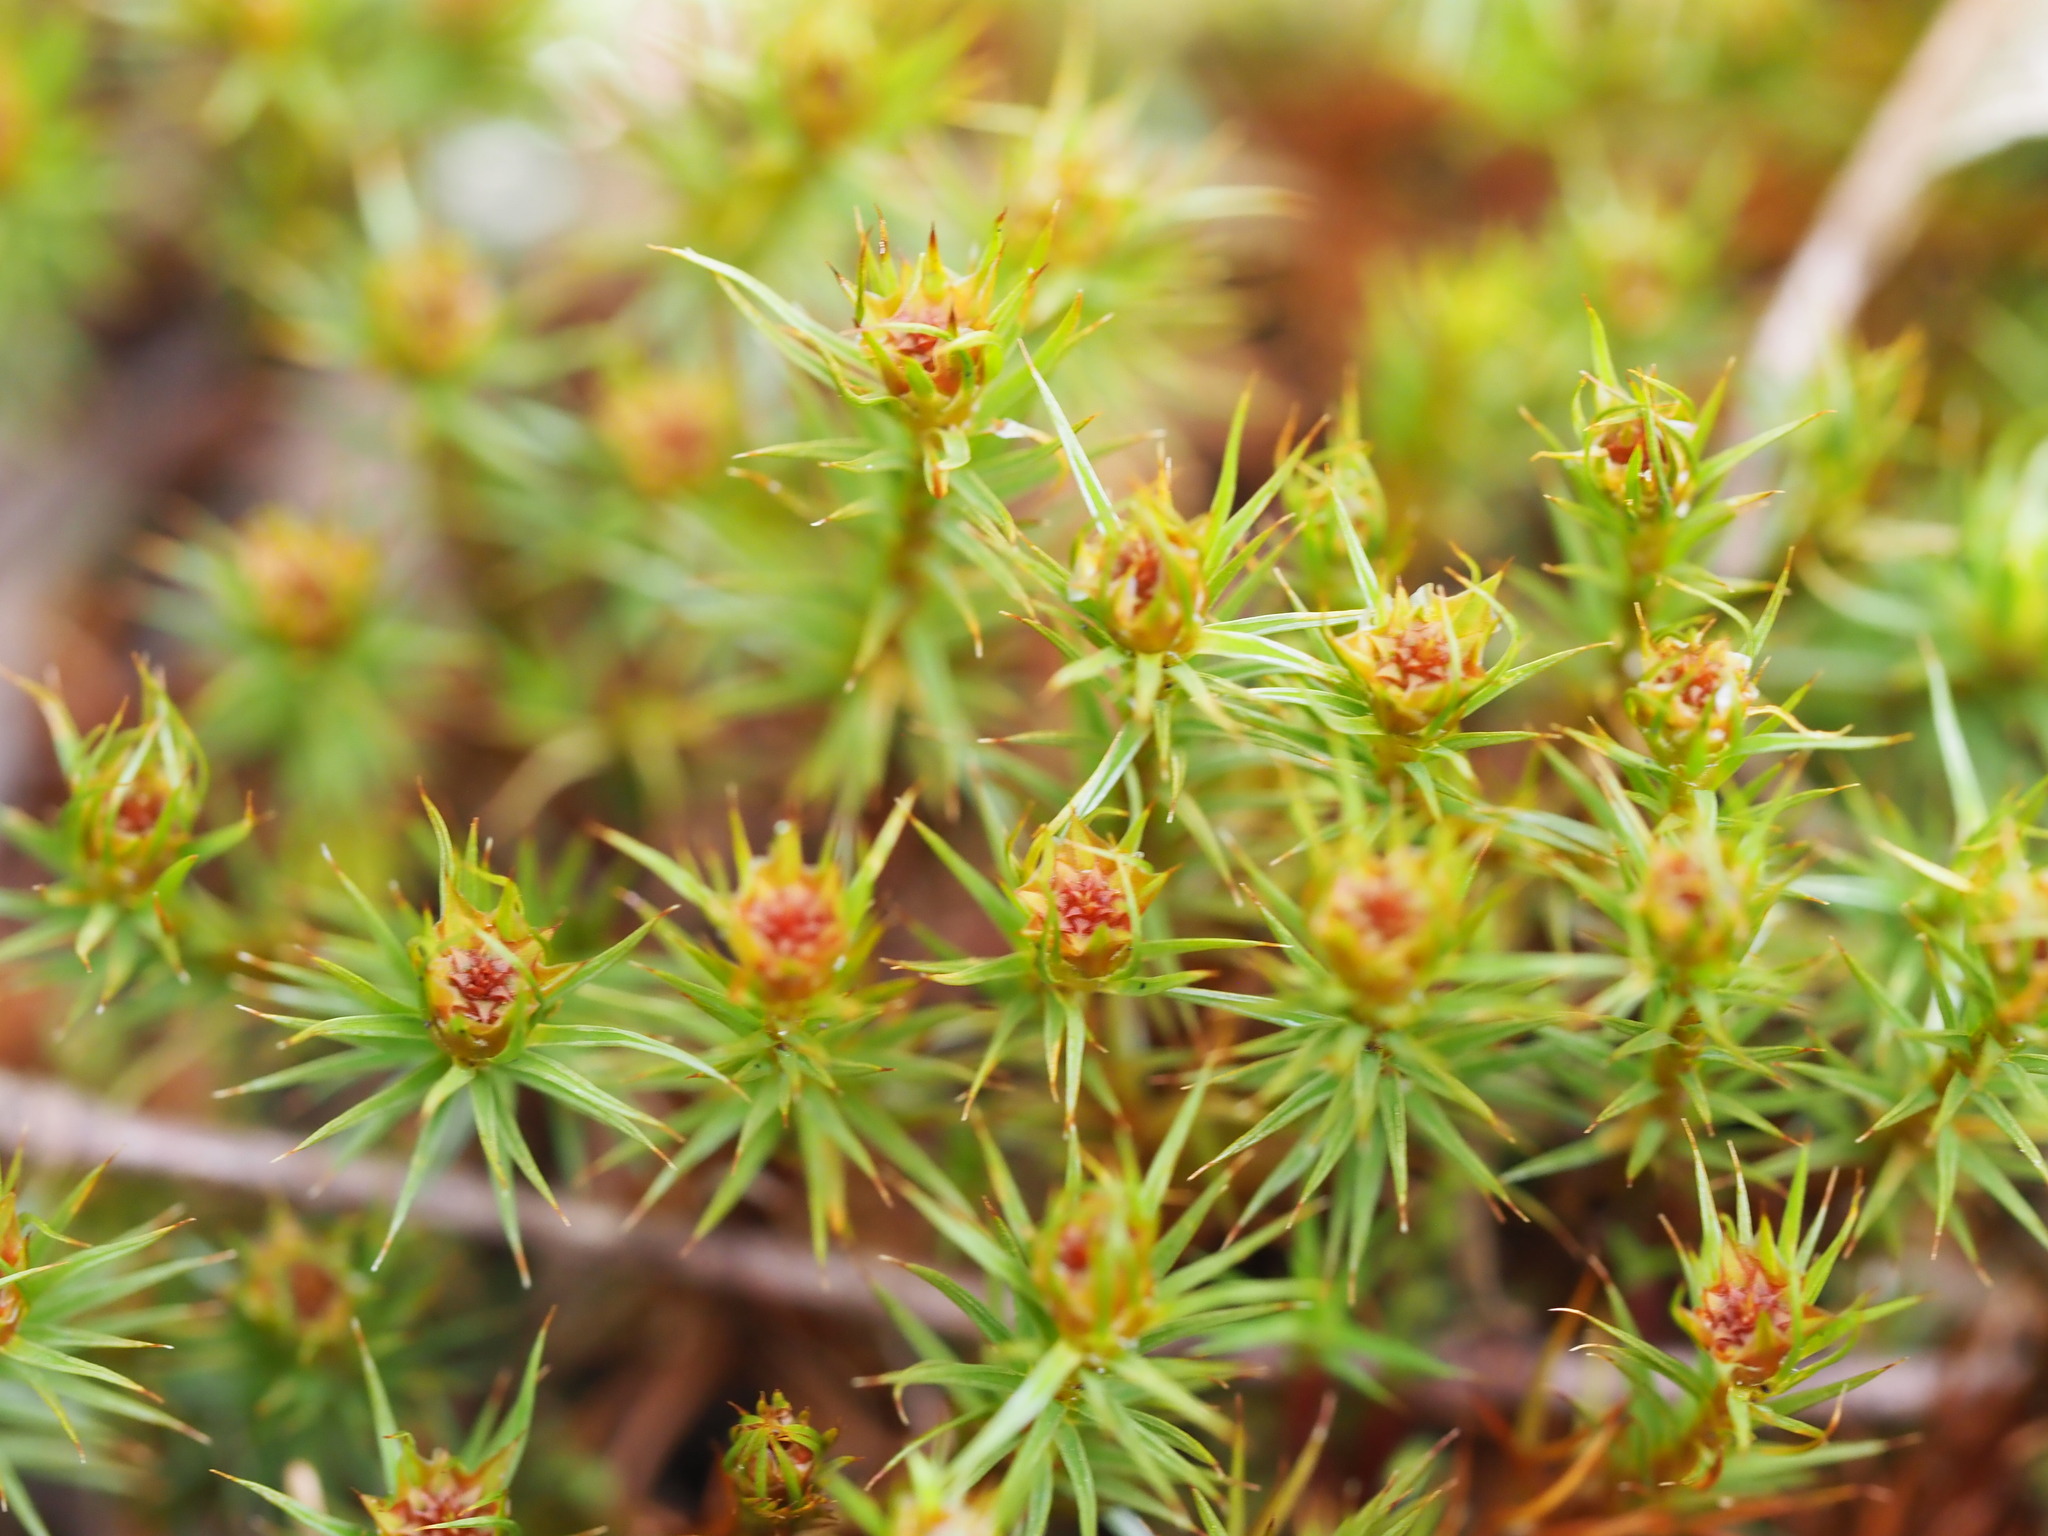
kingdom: Plantae
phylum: Bryophyta
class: Polytrichopsida
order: Polytrichales
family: Polytrichaceae
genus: Polytrichum
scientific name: Polytrichum juniperinum
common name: Juniper haircap moss
